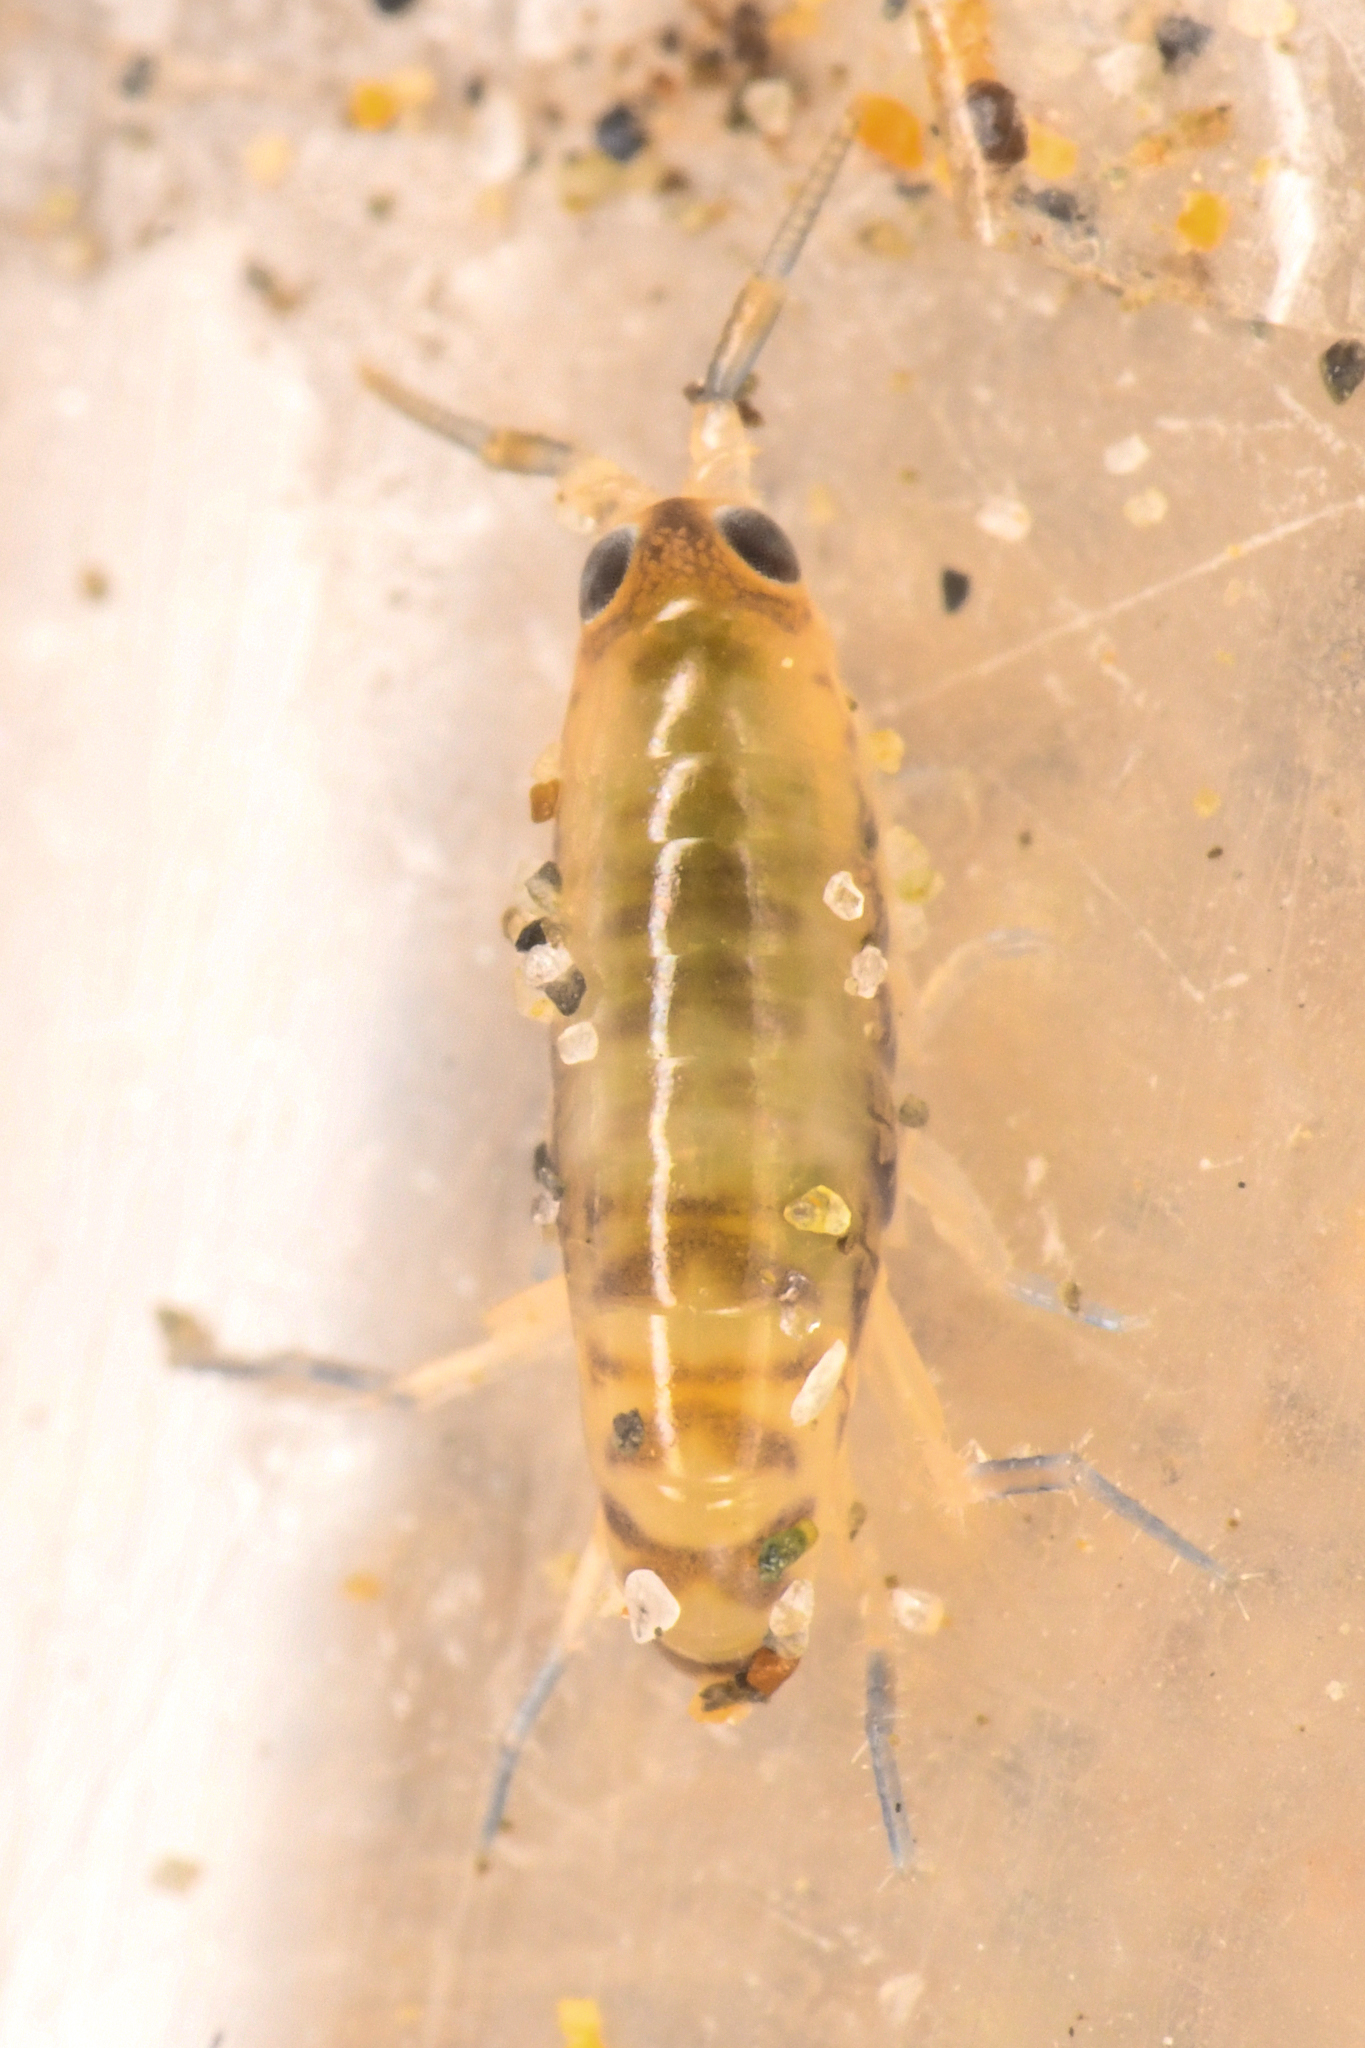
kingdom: Animalia
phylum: Arthropoda
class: Malacostraca
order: Amphipoda
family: Talitridae
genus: Megalorchestia
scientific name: Megalorchestia minor
